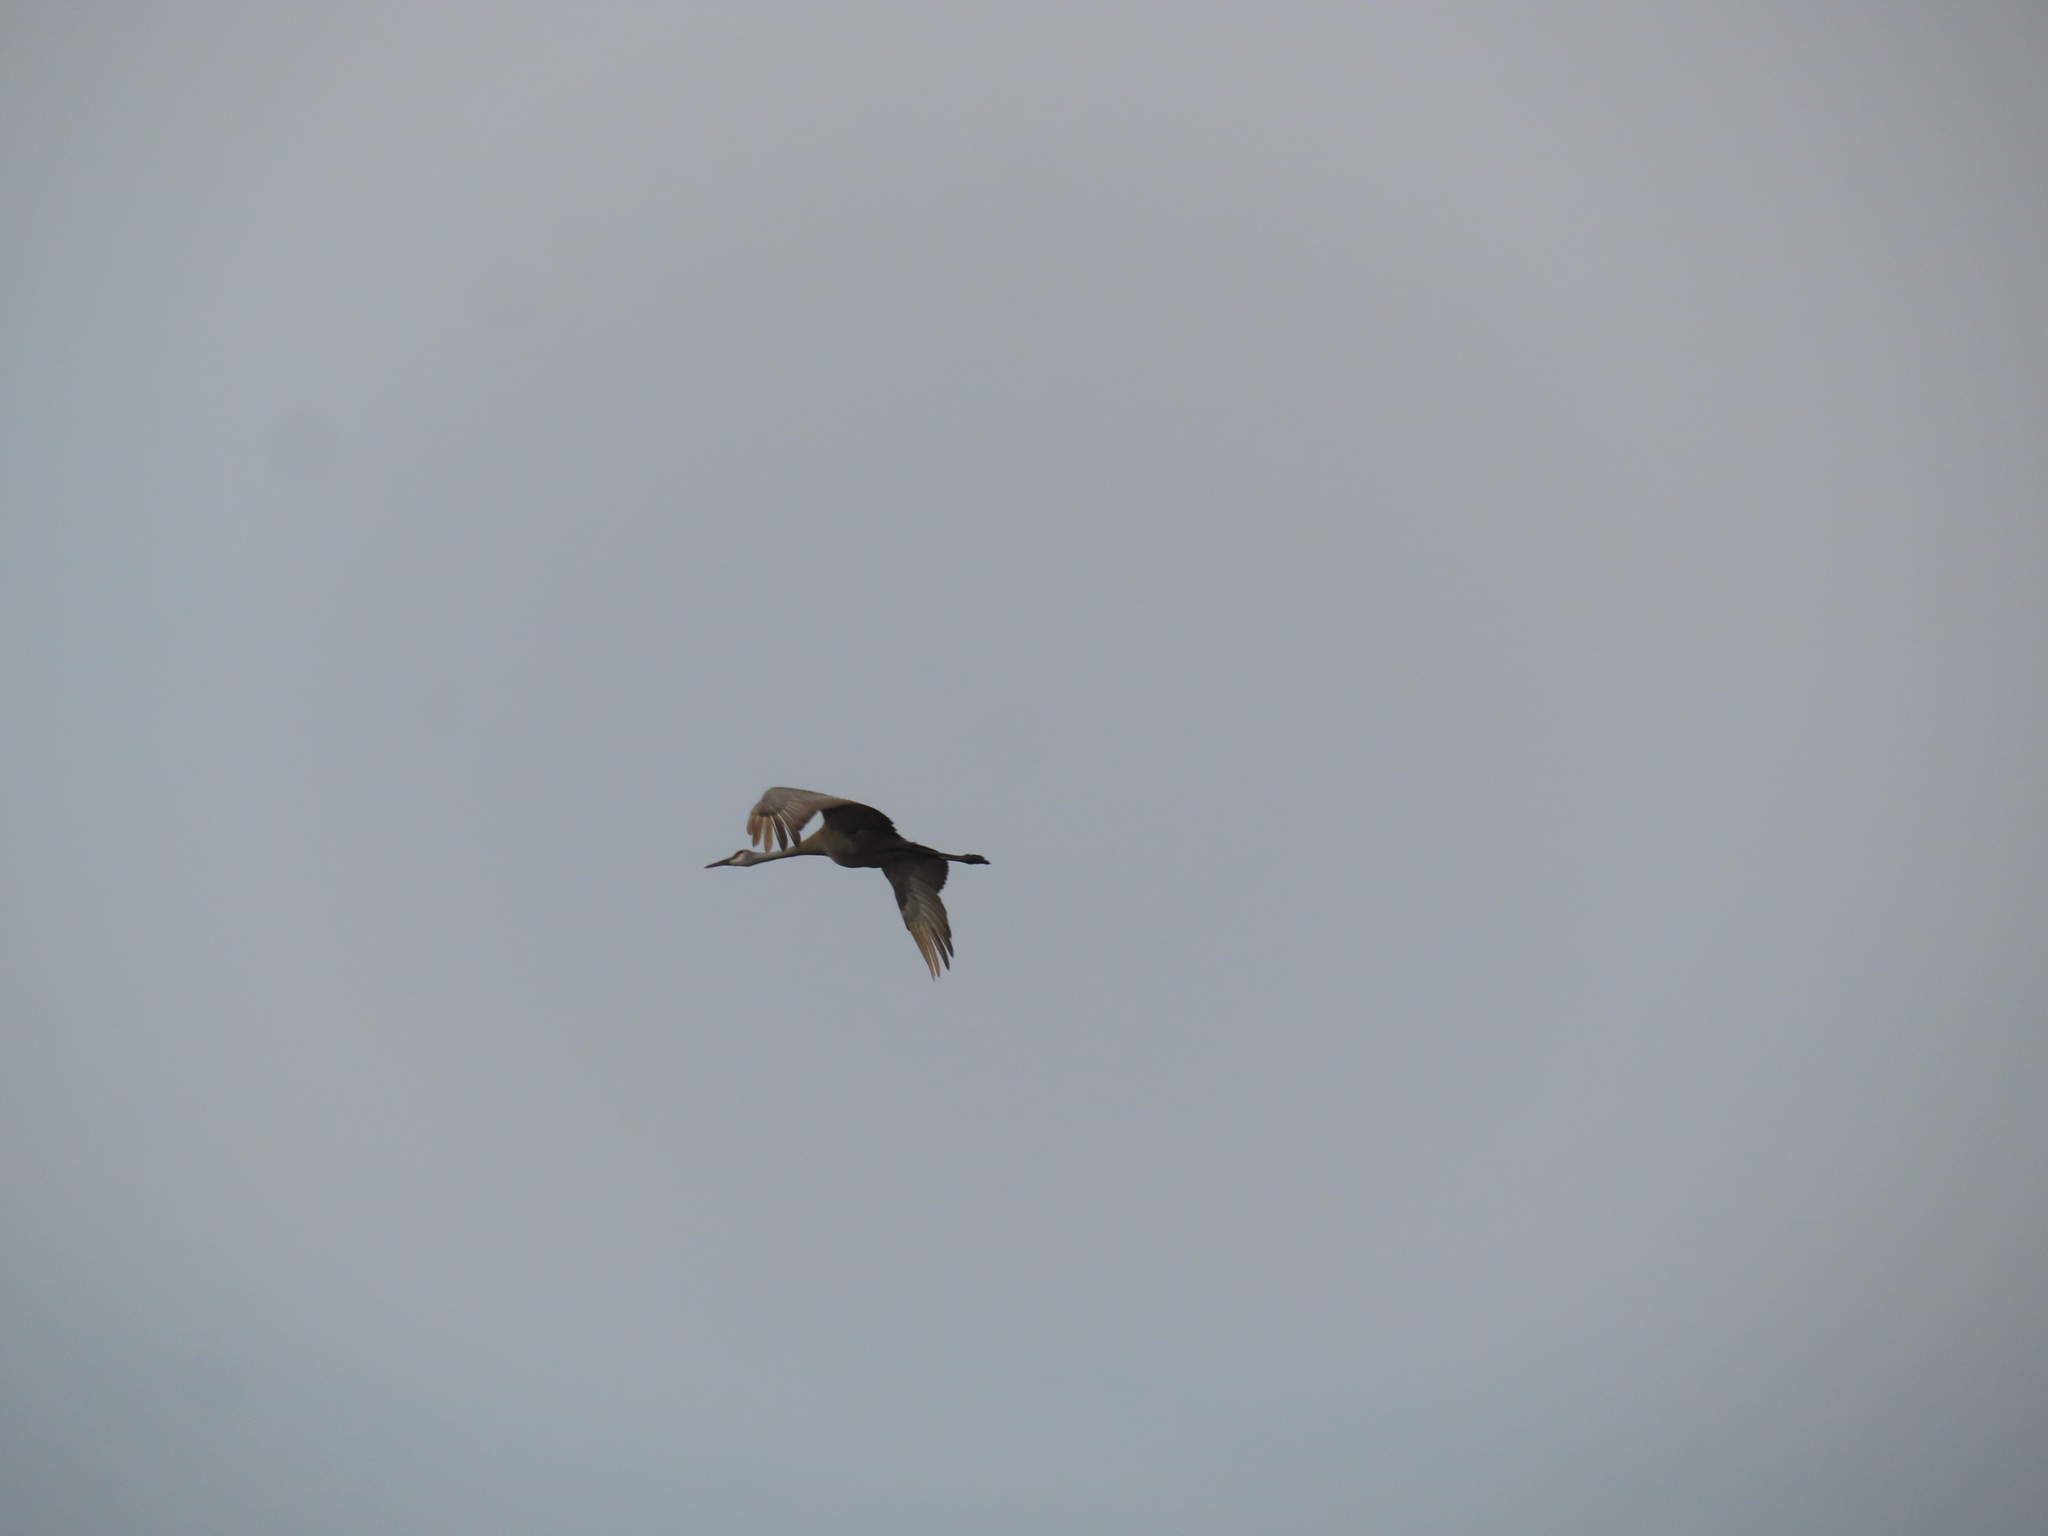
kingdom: Animalia
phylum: Chordata
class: Aves
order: Gruiformes
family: Gruidae
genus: Grus
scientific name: Grus canadensis
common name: Sandhill crane
